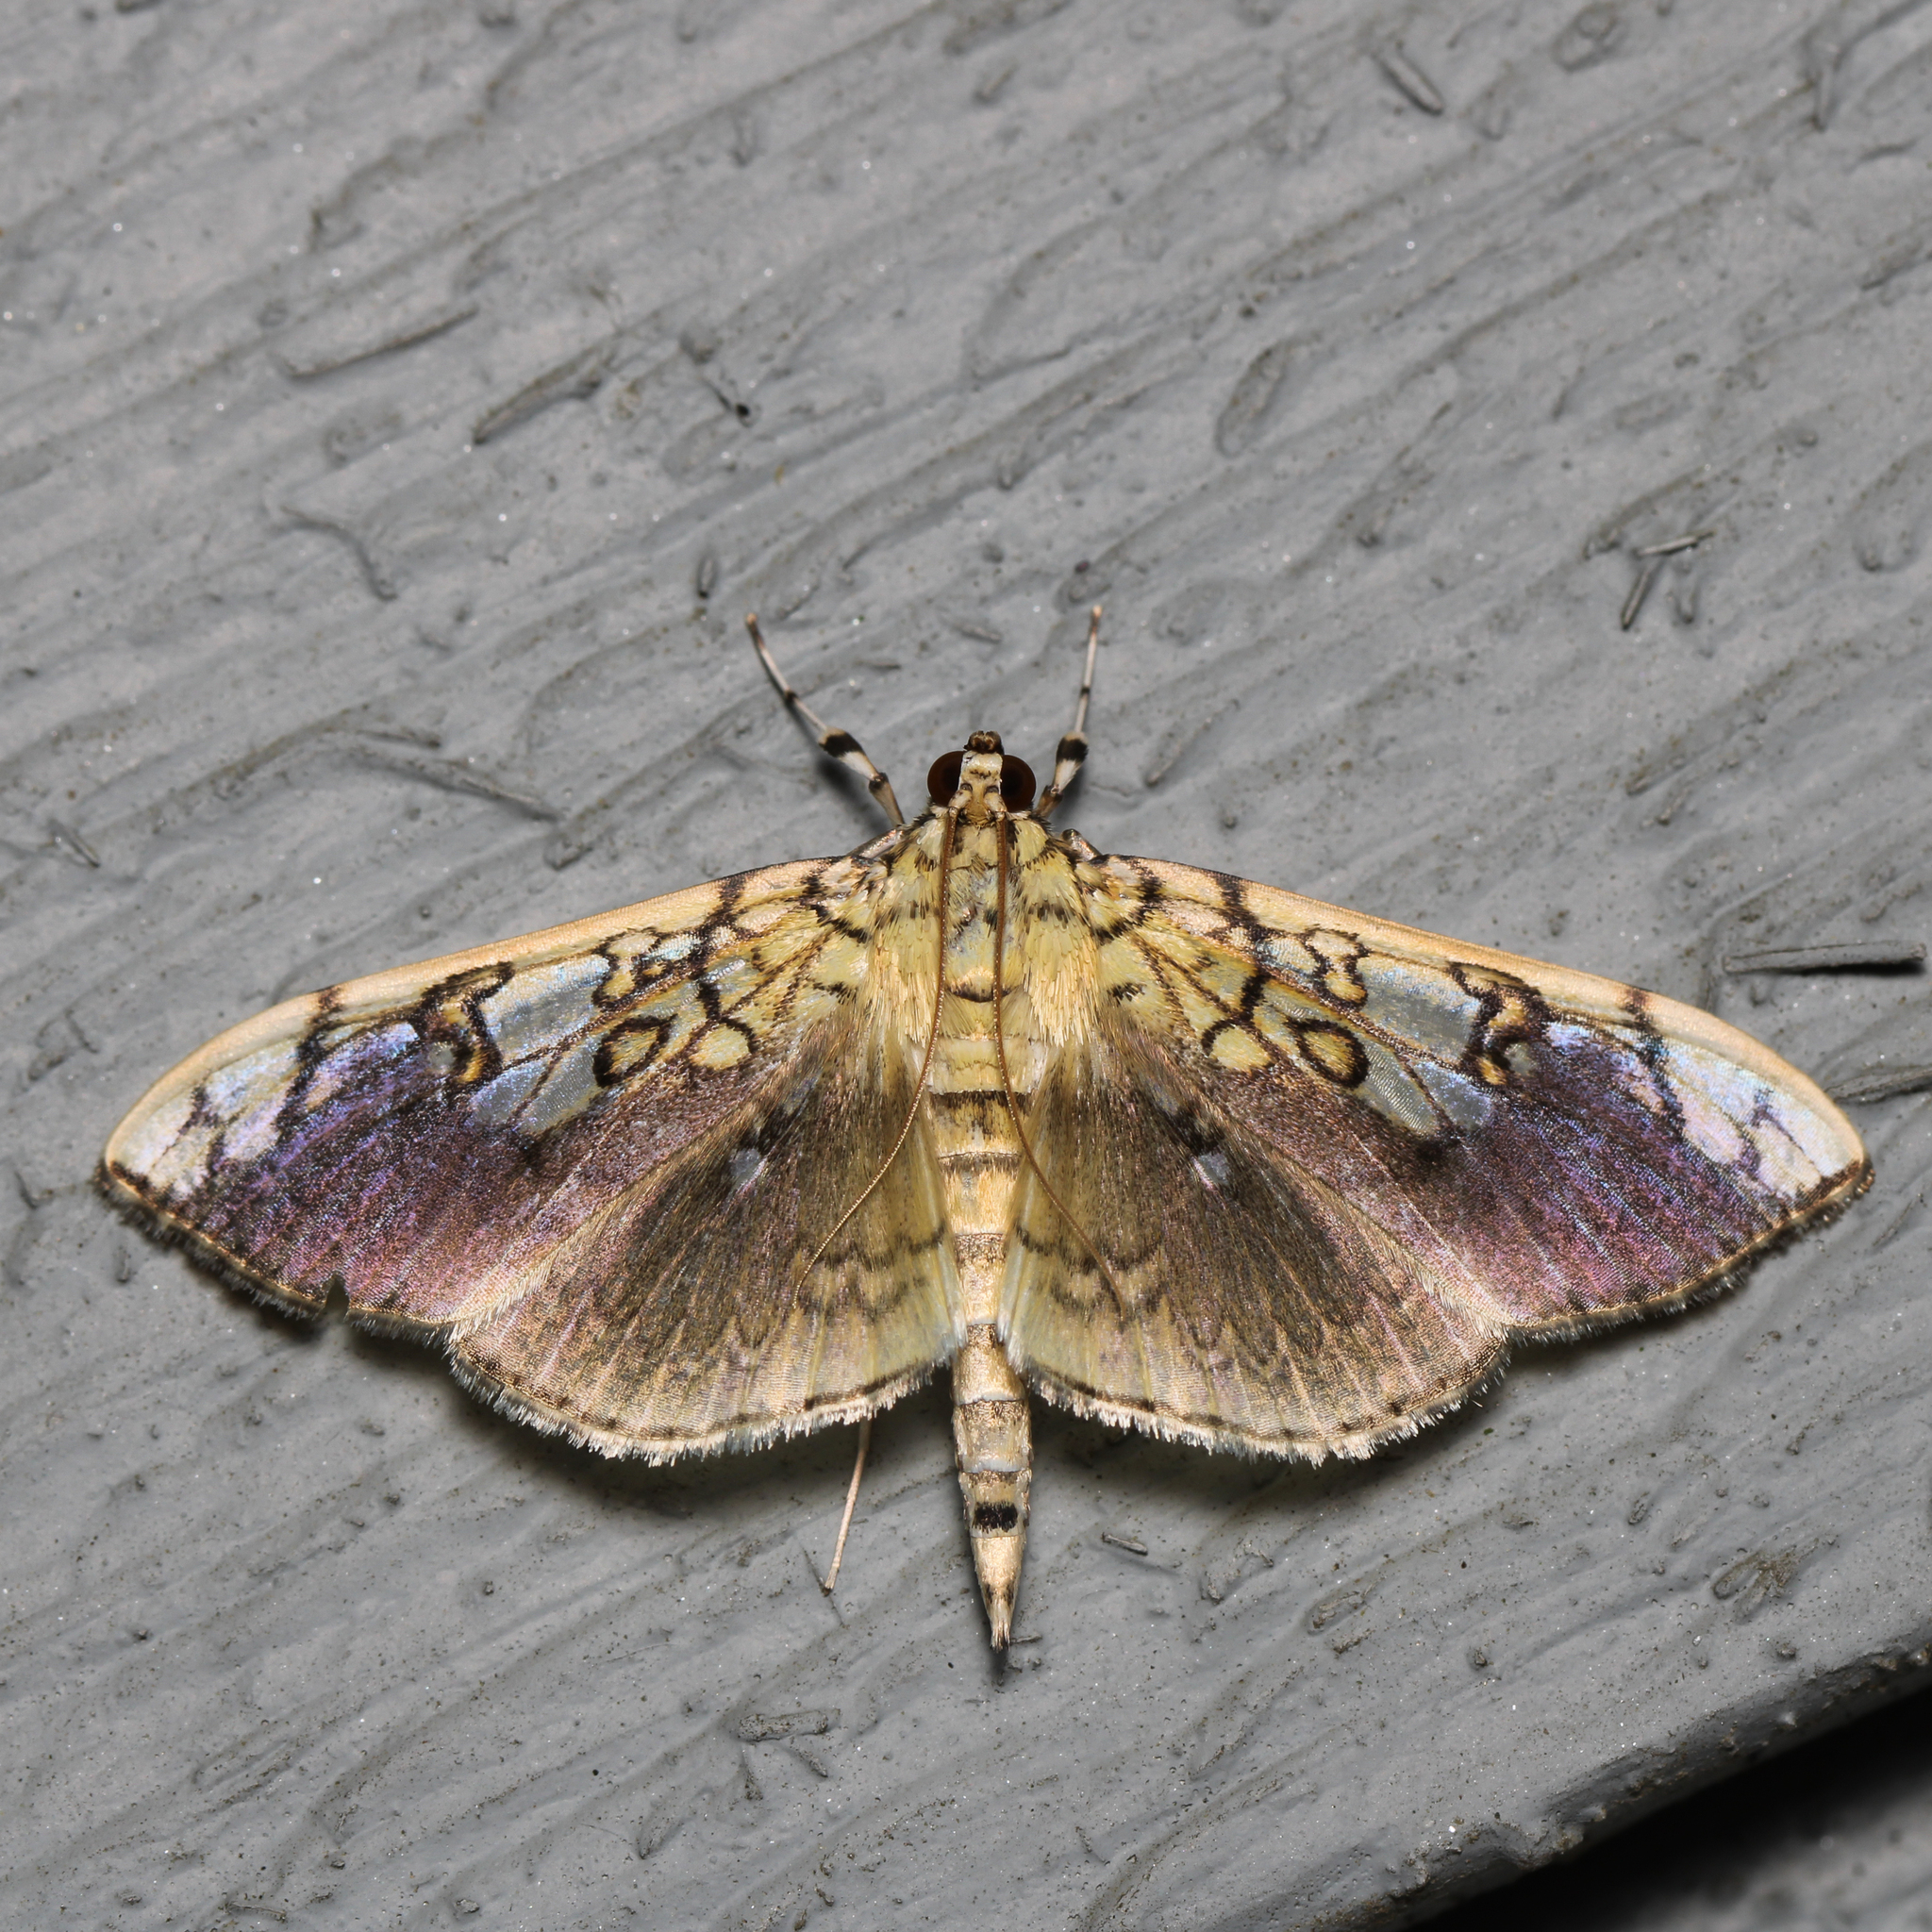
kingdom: Animalia
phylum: Arthropoda
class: Insecta
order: Lepidoptera
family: Crambidae
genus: Pantographa
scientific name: Pantographa limata
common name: Basswood leafroller moth
